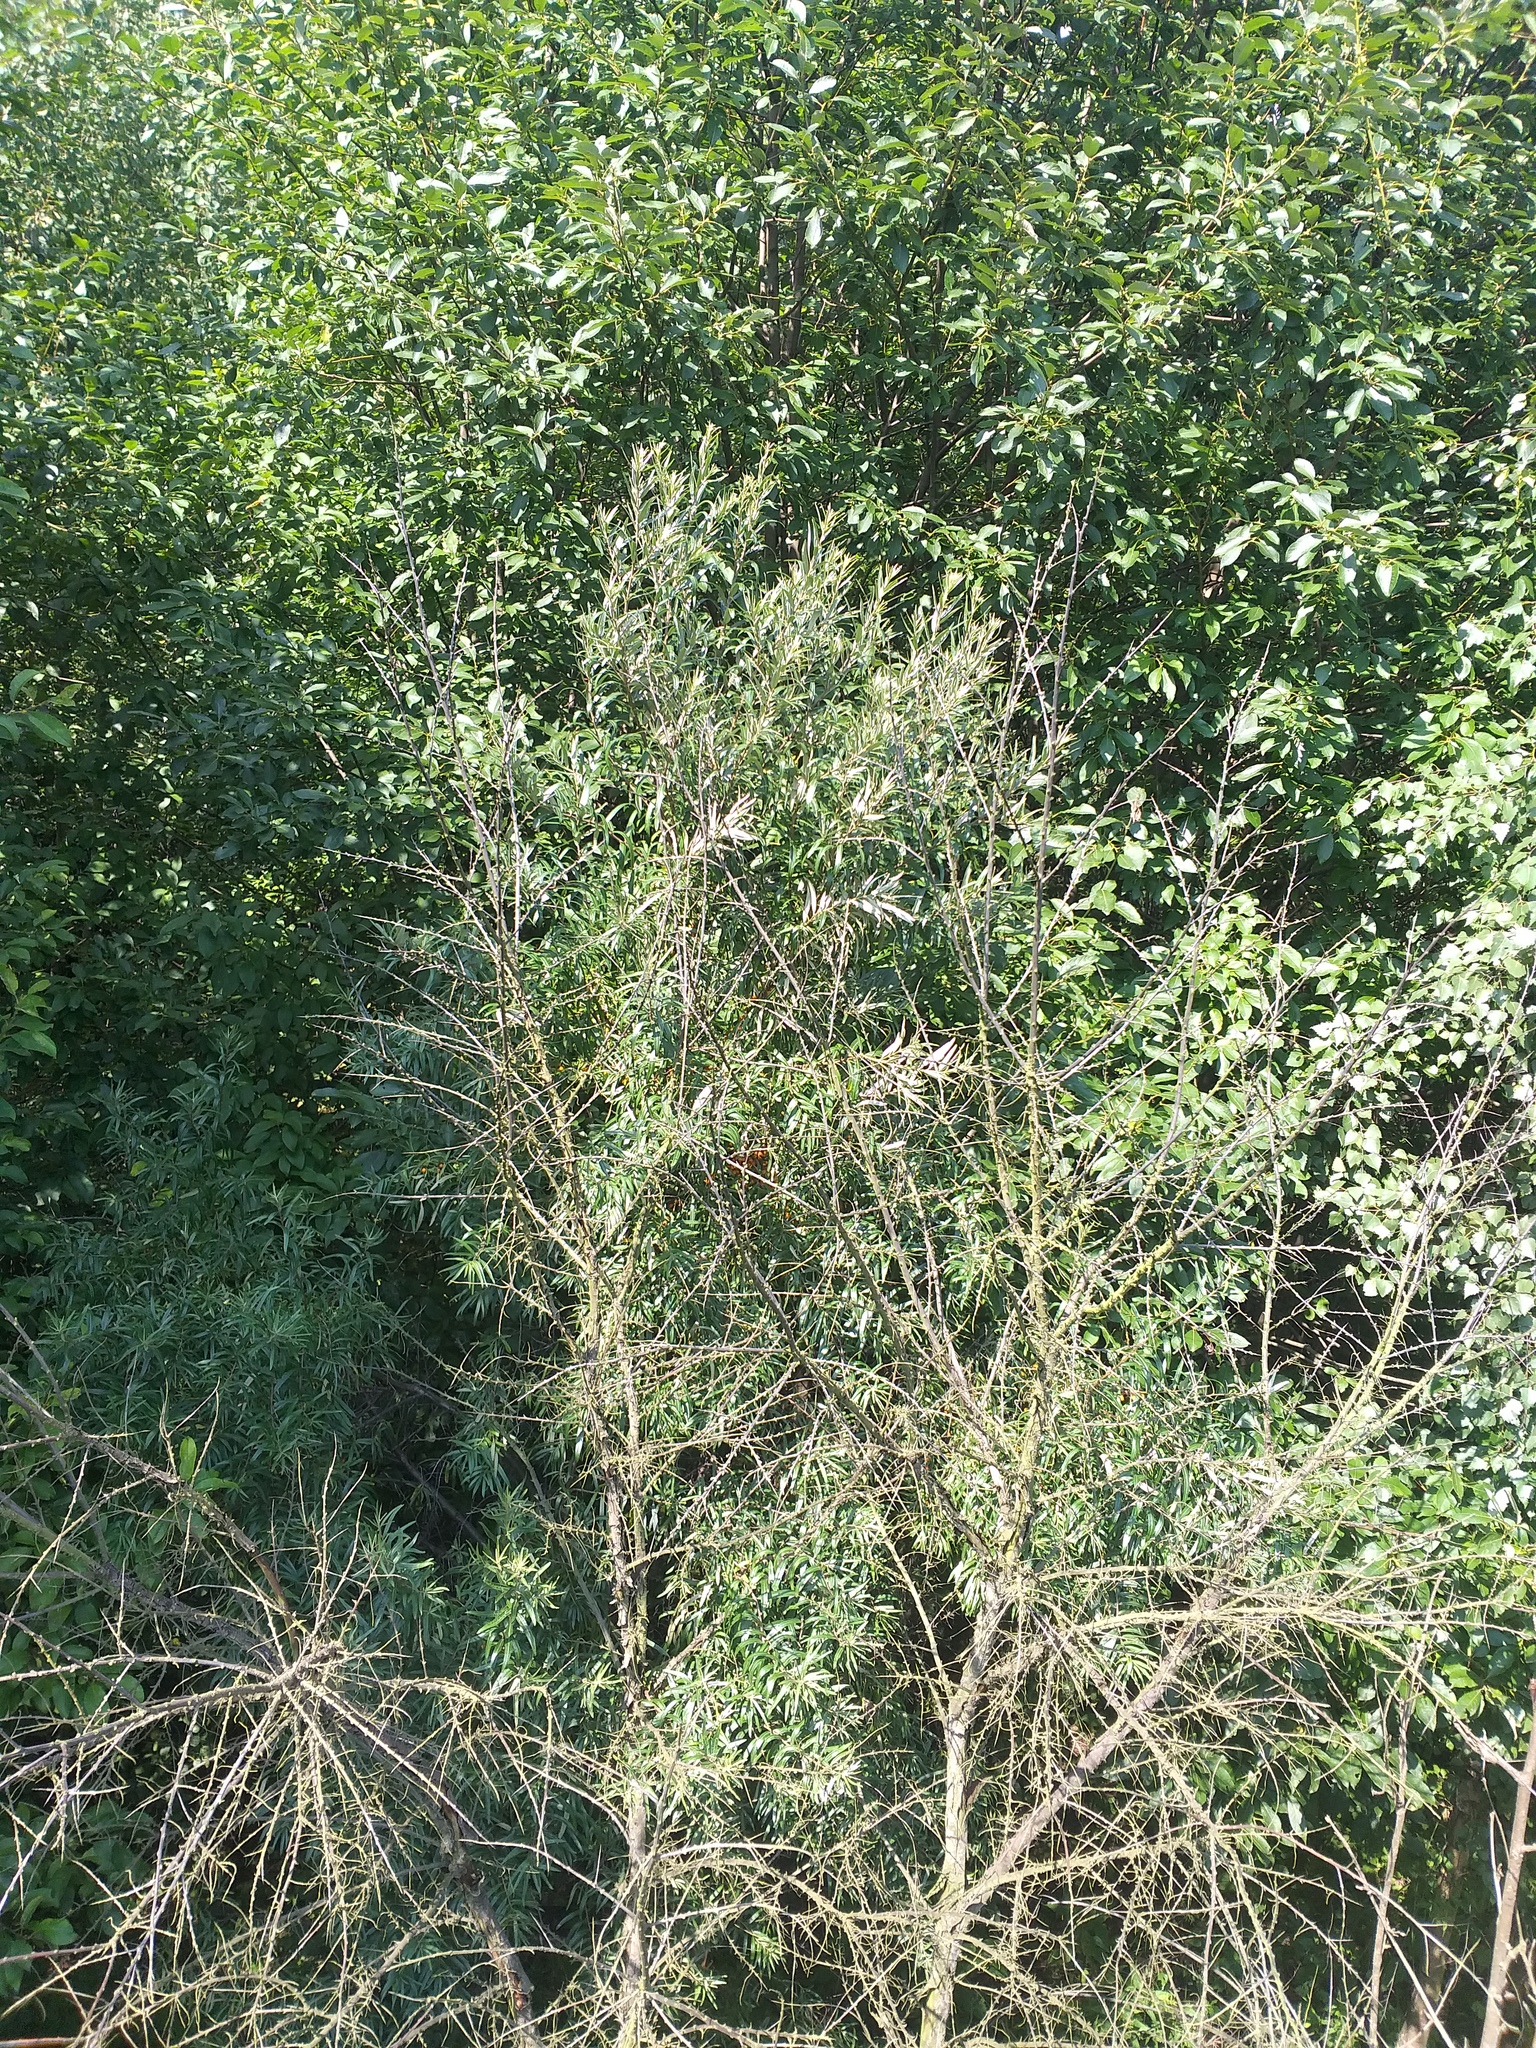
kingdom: Plantae
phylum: Tracheophyta
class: Magnoliopsida
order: Rosales
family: Elaeagnaceae
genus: Hippophae
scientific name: Hippophae rhamnoides
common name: Sea-buckthorn
